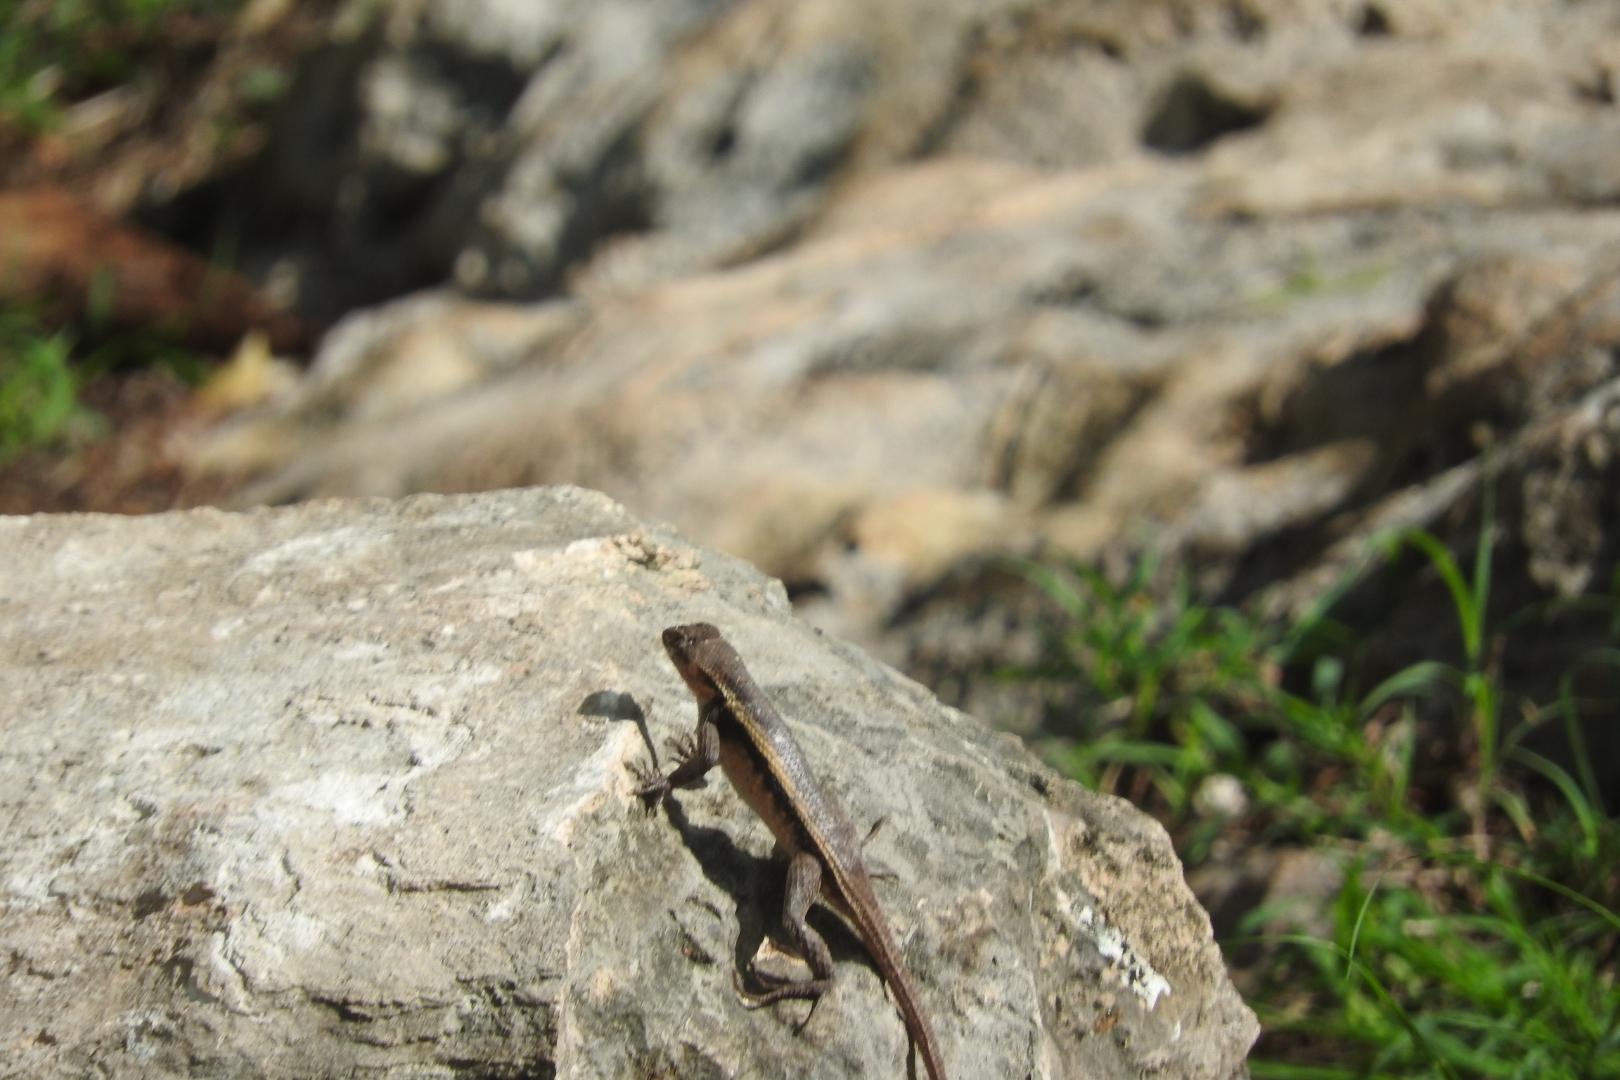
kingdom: Animalia
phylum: Chordata
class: Squamata
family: Phrynosomatidae
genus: Sceloporus
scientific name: Sceloporus chrysostictus
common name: Yellow-spotted spiny lizard
